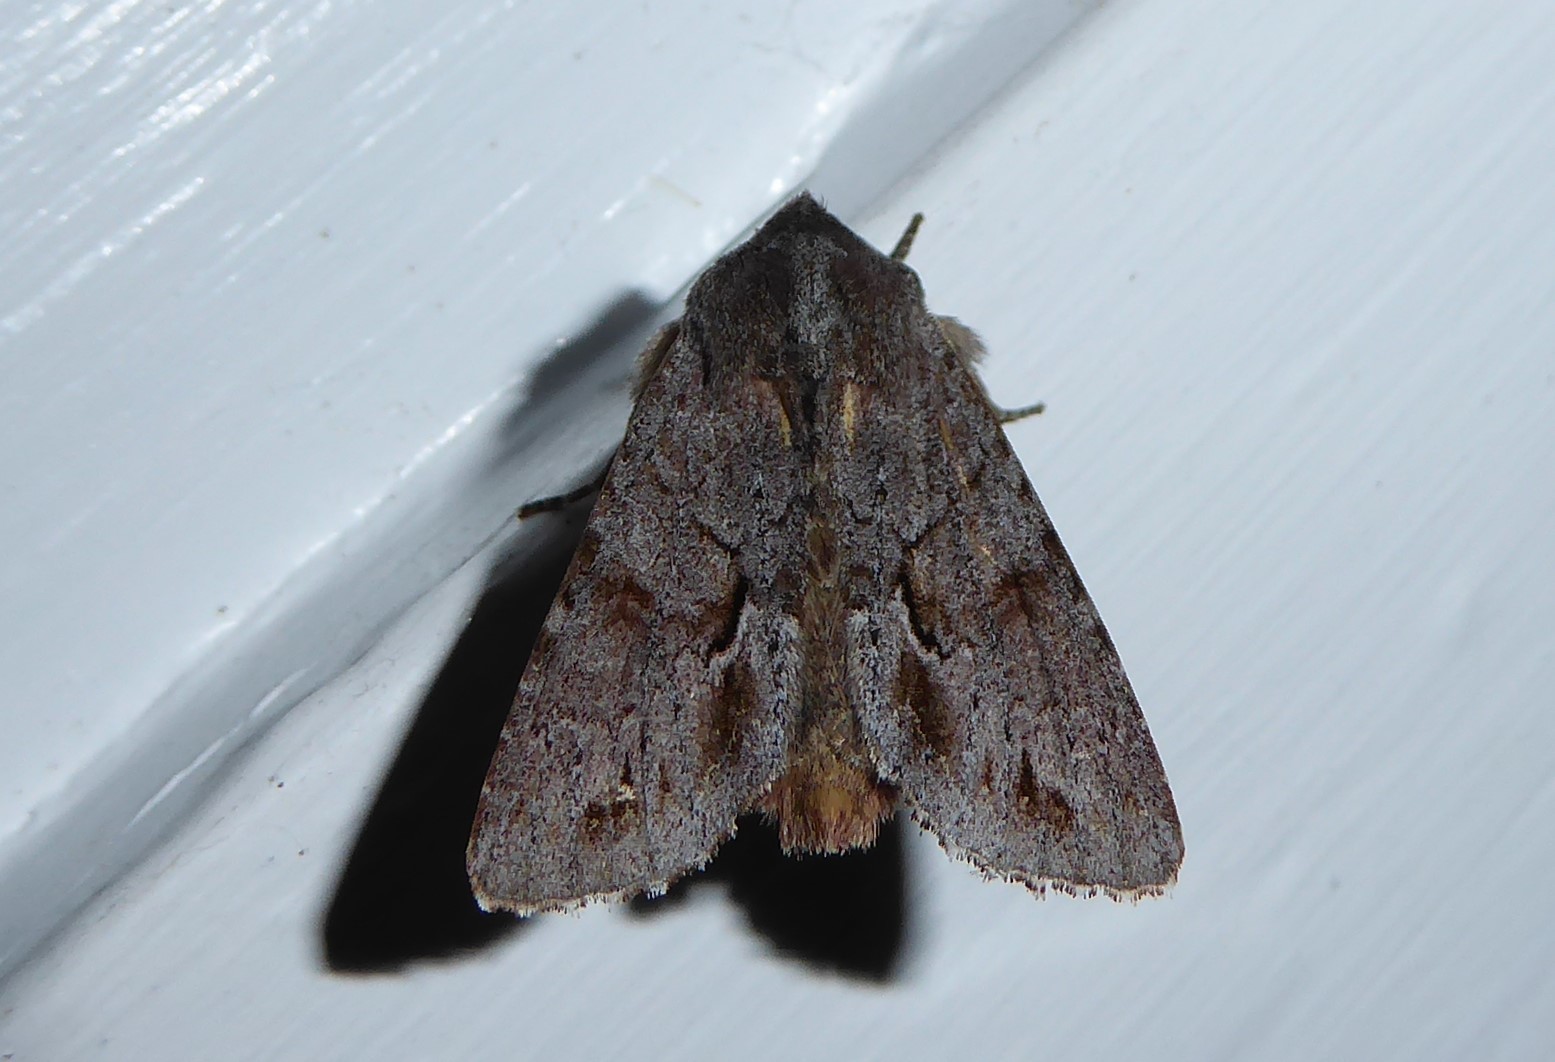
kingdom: Animalia
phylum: Arthropoda
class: Insecta
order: Lepidoptera
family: Noctuidae
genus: Ichneutica
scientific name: Ichneutica
